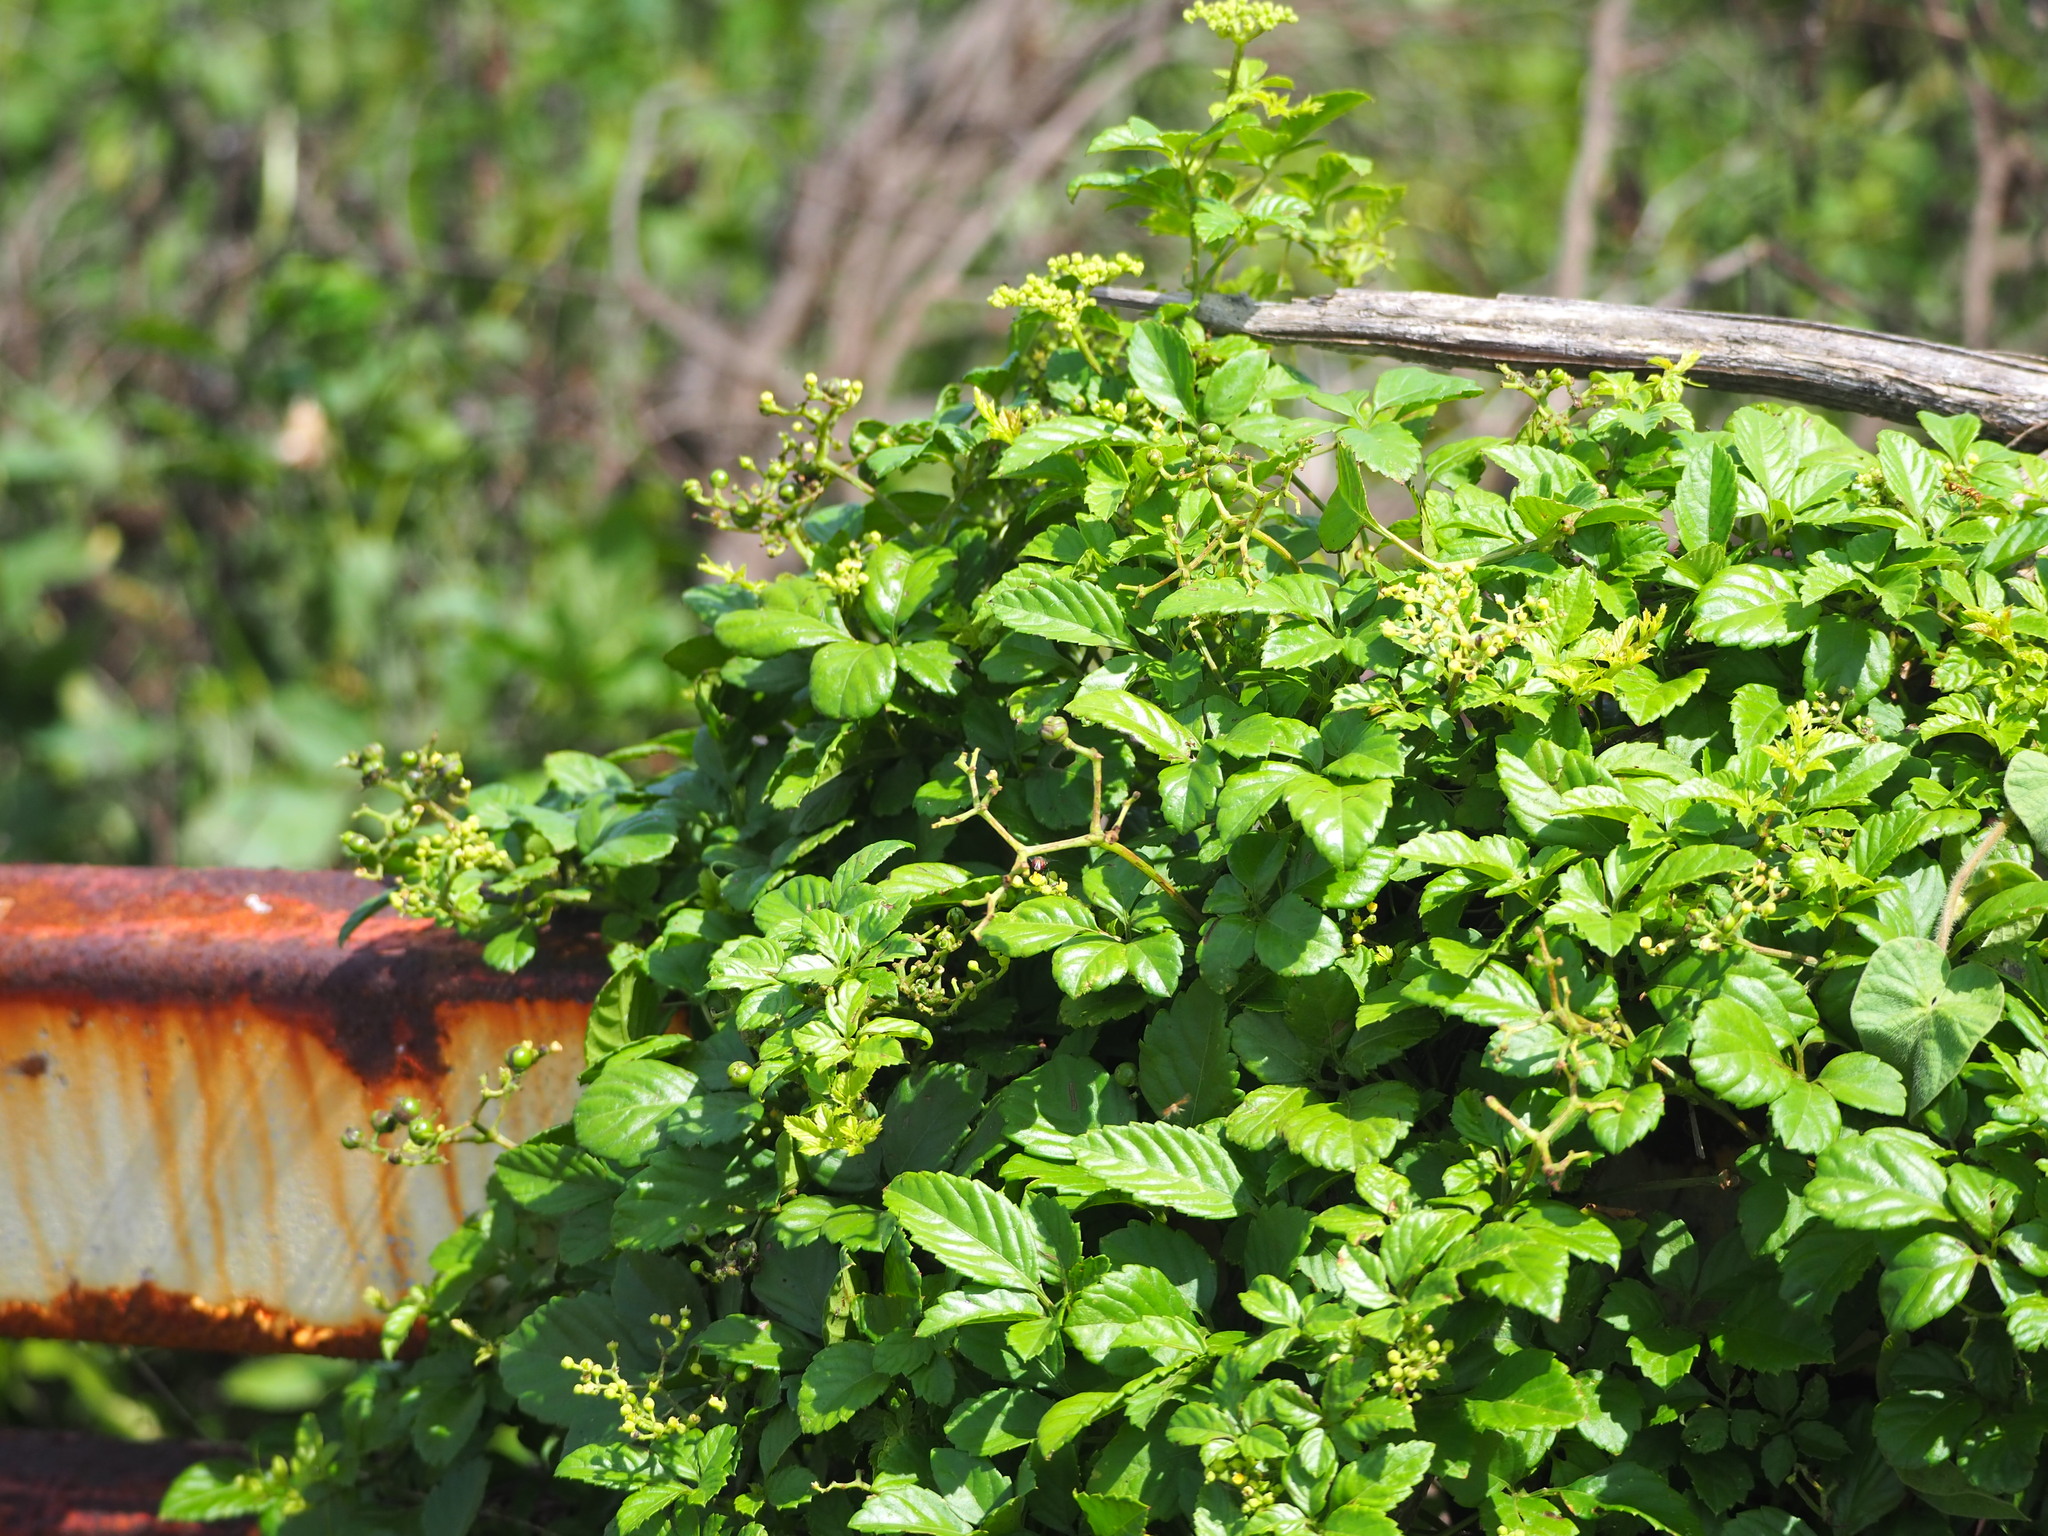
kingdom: Plantae
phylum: Tracheophyta
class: Magnoliopsida
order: Vitales
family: Vitaceae
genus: Causonis
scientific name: Causonis japonica
